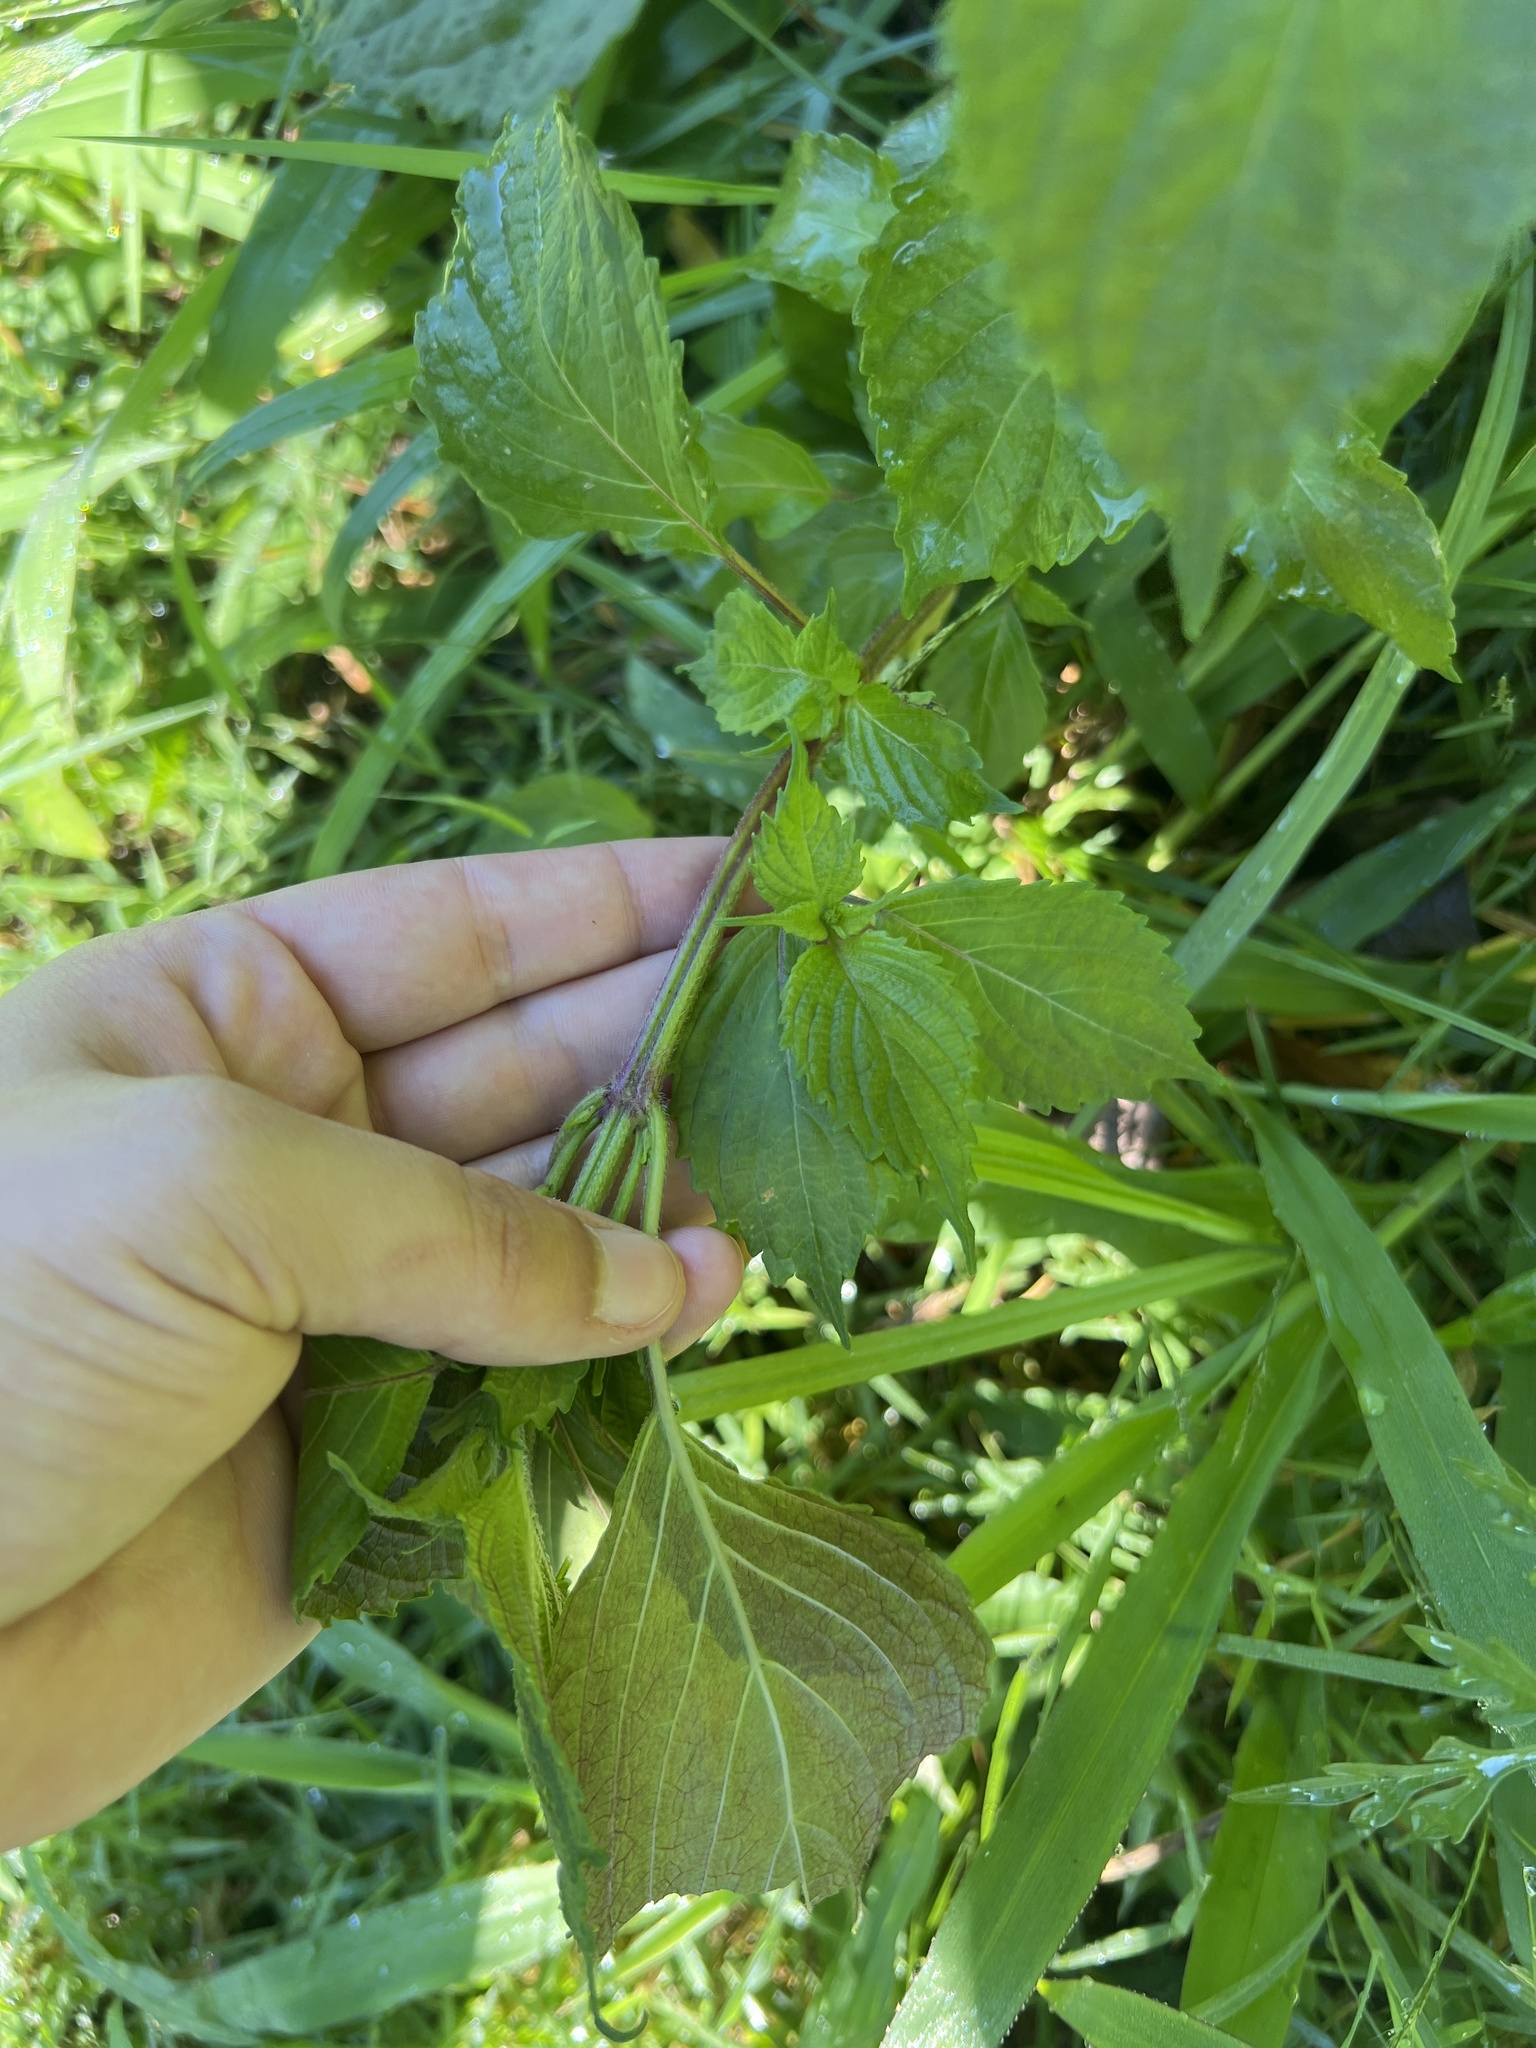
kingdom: Plantae
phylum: Tracheophyta
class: Magnoliopsida
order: Lamiales
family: Lamiaceae
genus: Perilla
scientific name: Perilla frutescens
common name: Perilla
